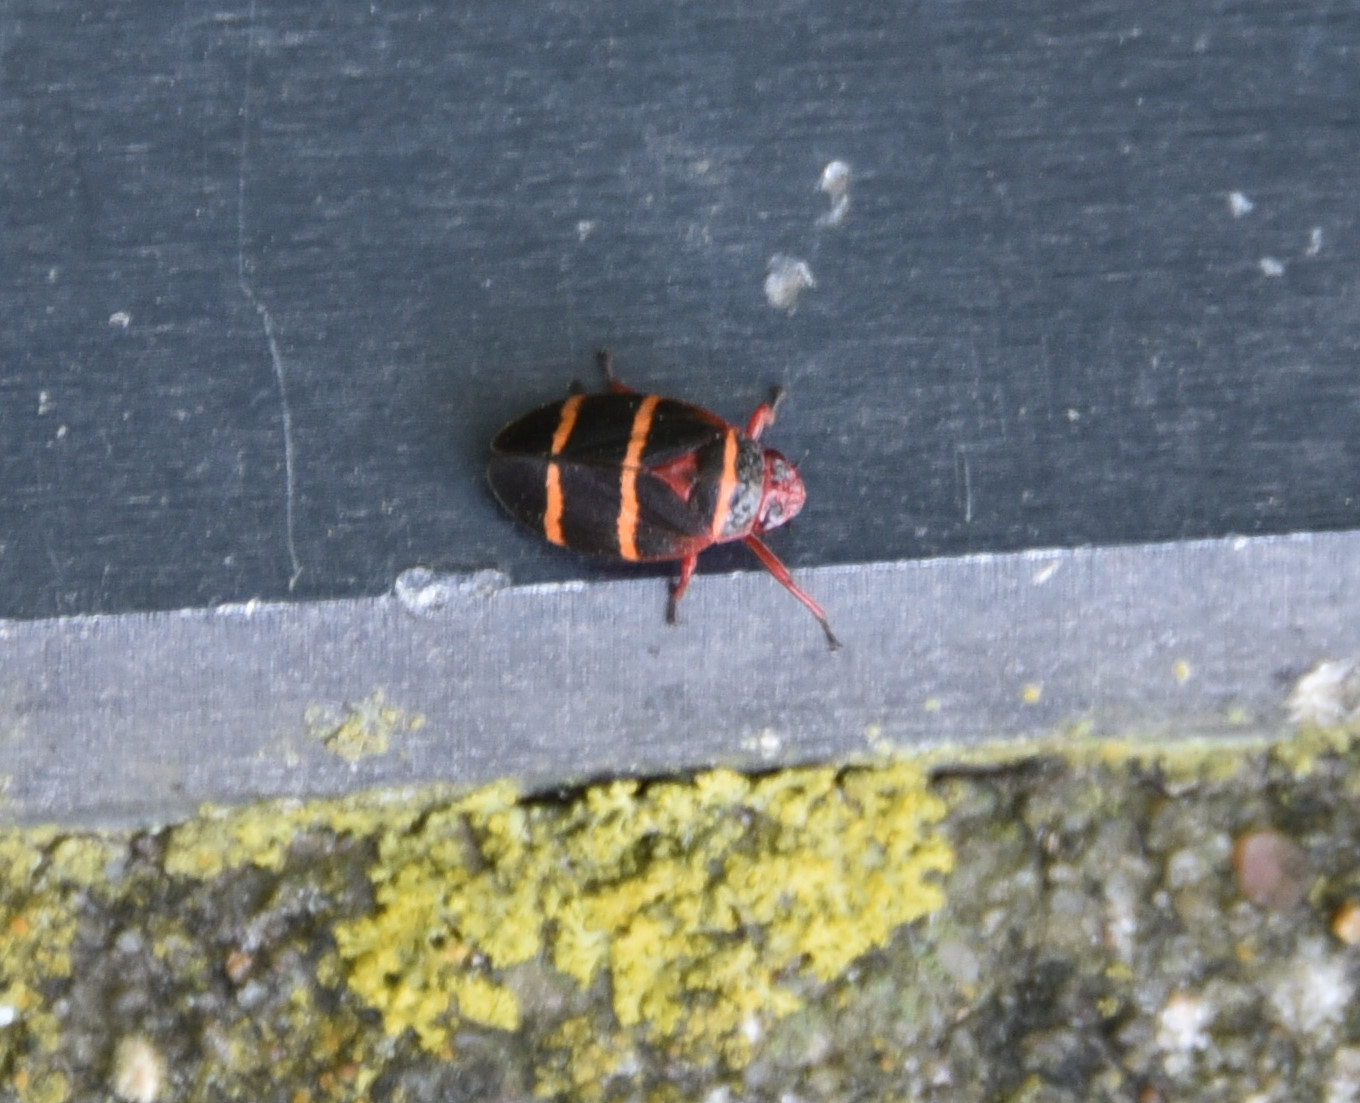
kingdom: Animalia
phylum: Arthropoda
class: Insecta
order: Hemiptera
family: Cercopidae
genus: Prosapia
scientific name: Prosapia bicincta
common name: Twolined spittlebug
